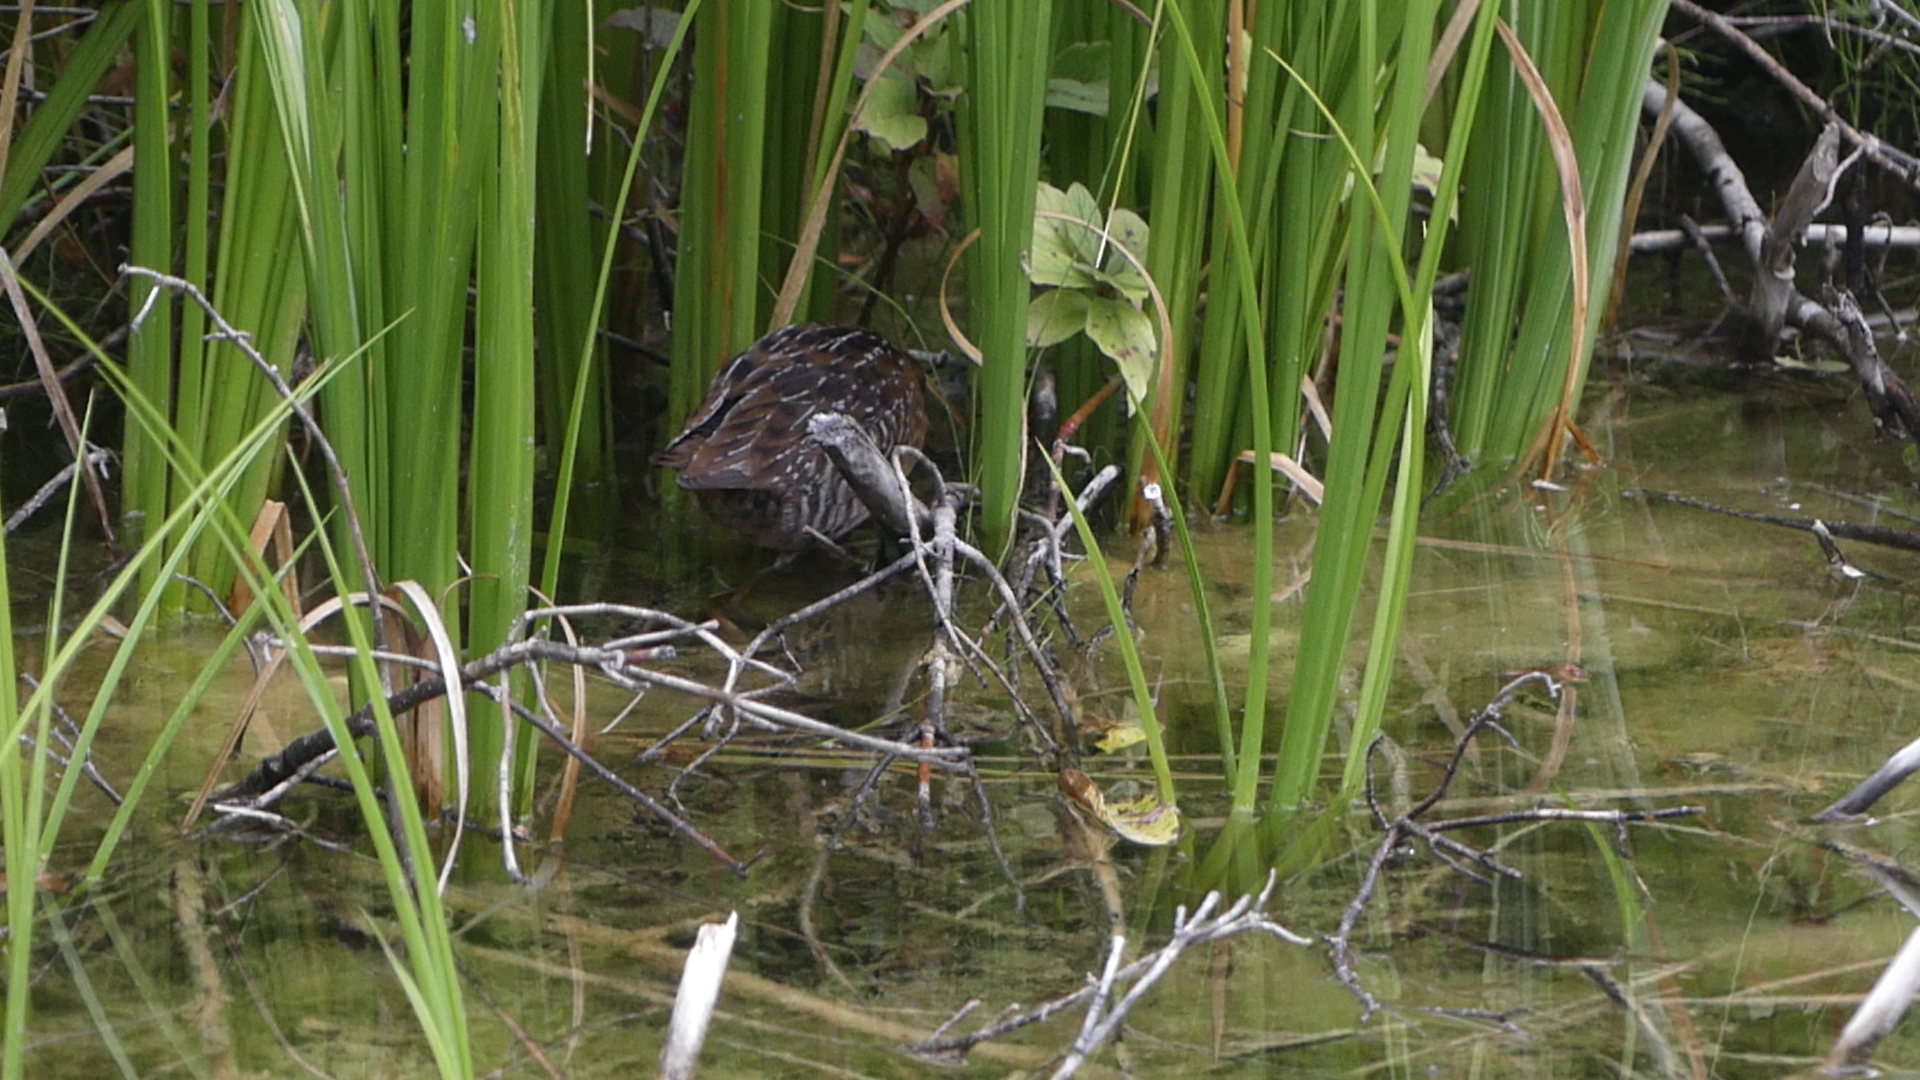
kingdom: Animalia
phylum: Chordata
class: Aves
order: Gruiformes
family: Rallidae
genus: Porzana
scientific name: Porzana carolina
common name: Sora
